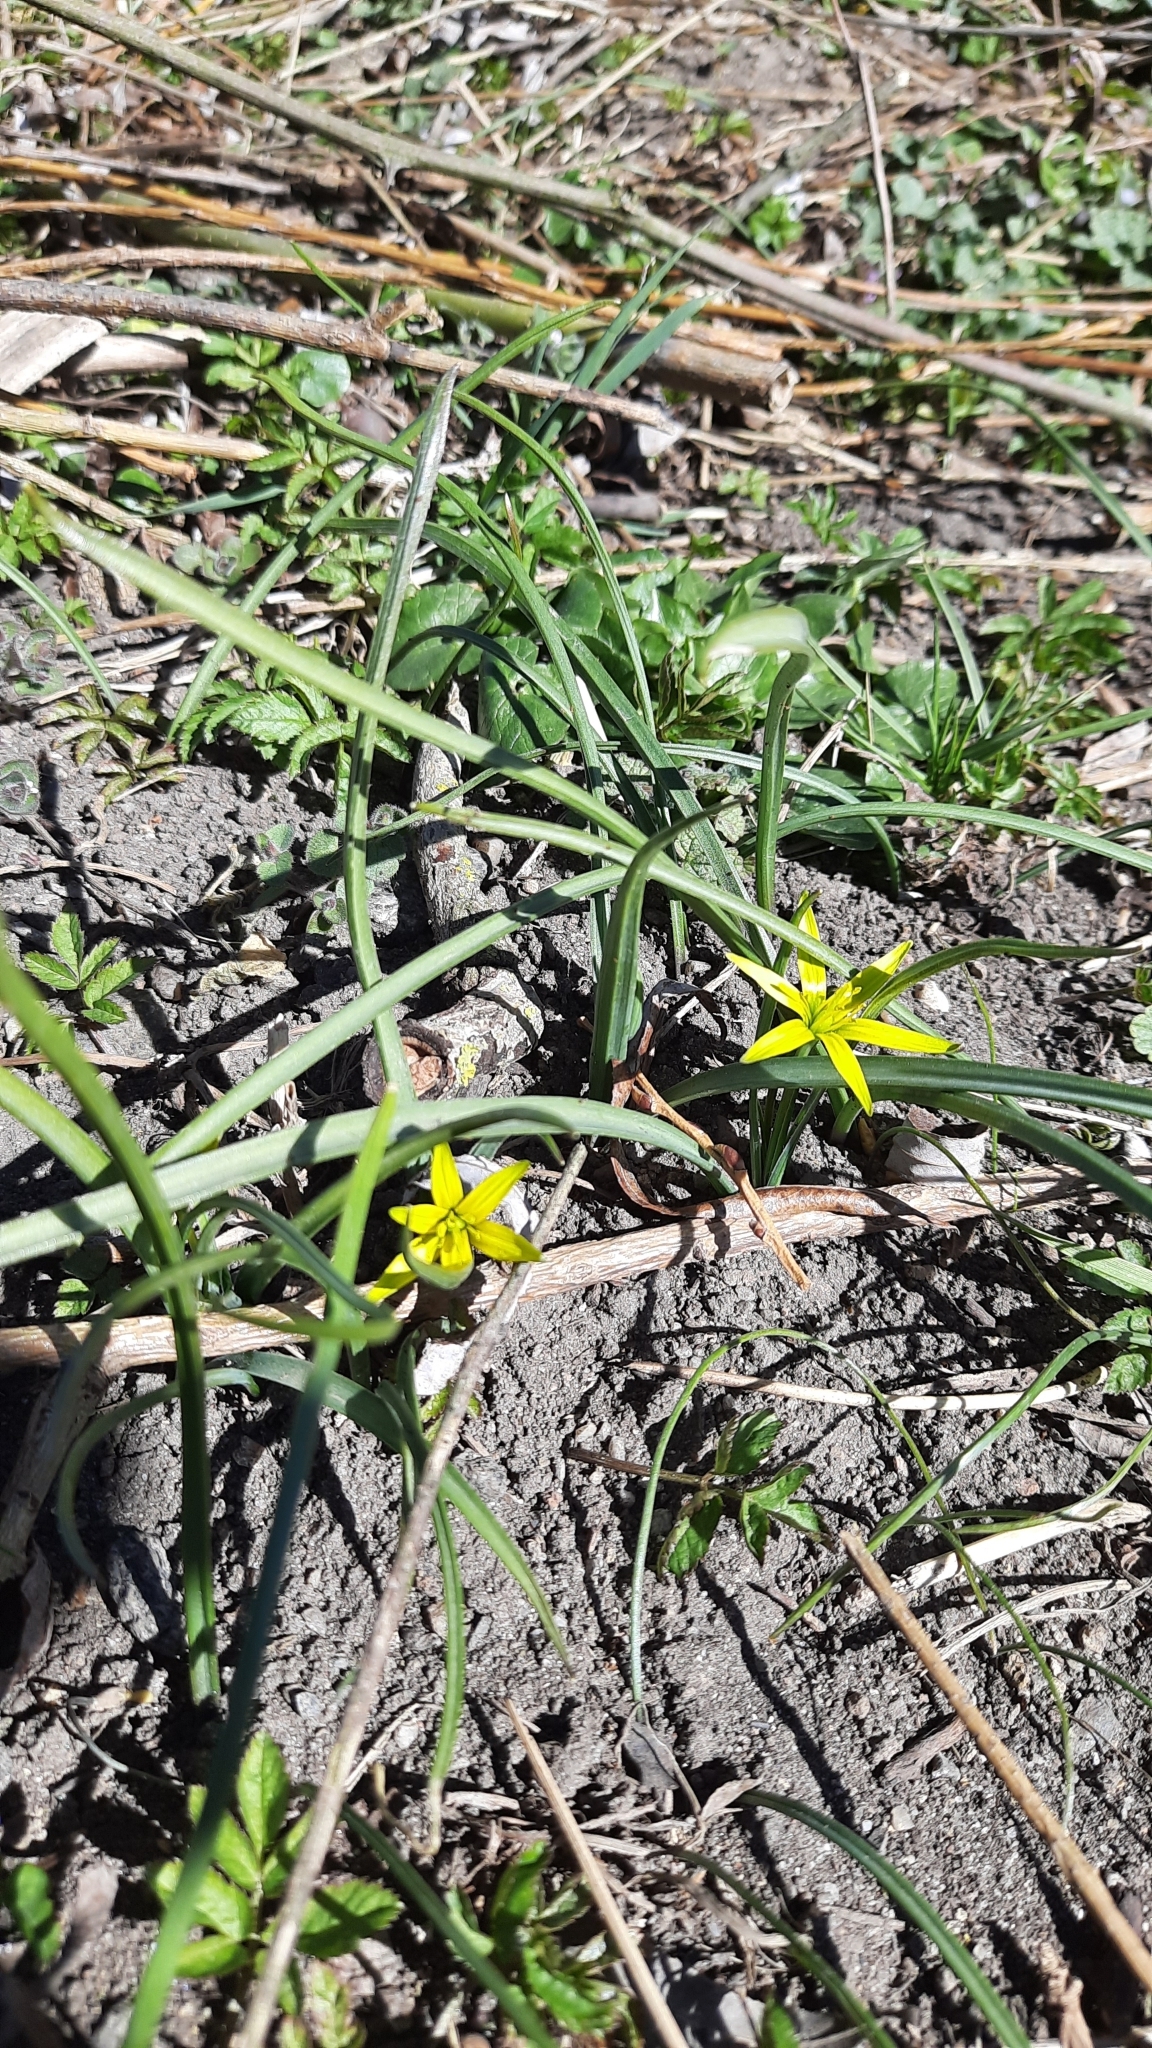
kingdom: Plantae
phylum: Tracheophyta
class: Liliopsida
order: Liliales
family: Liliaceae
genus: Gagea
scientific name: Gagea pratensis
